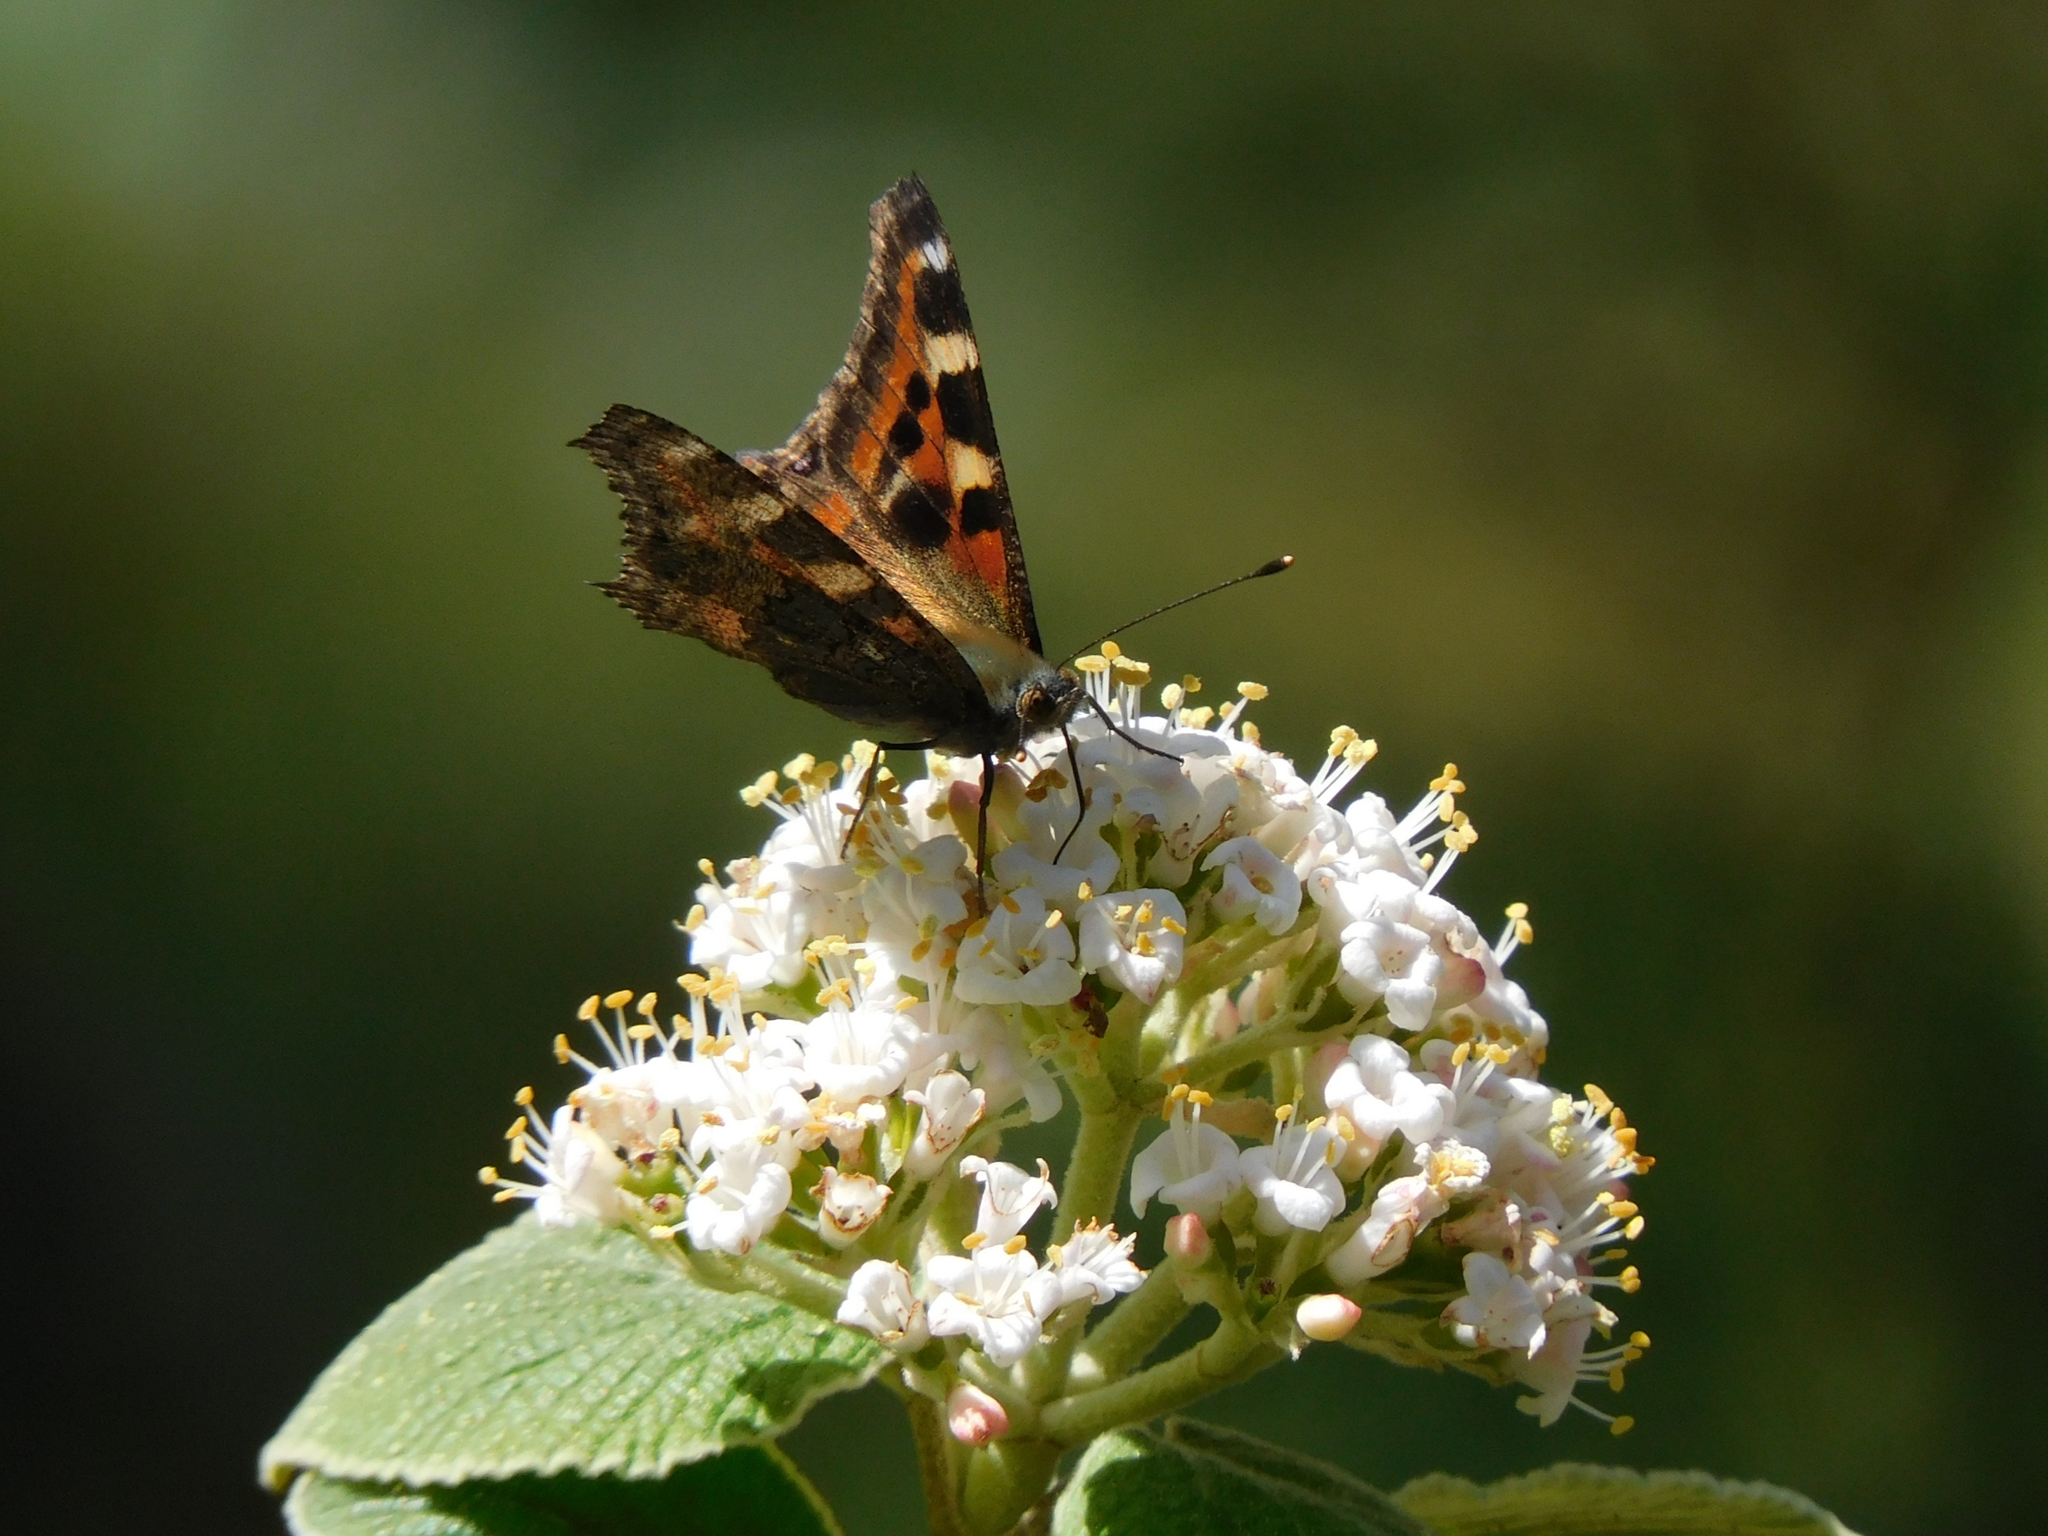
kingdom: Animalia
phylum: Arthropoda
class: Insecta
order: Lepidoptera
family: Nymphalidae
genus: Aglais
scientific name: Aglais caschmirensis
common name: Indian tortoiseshell
